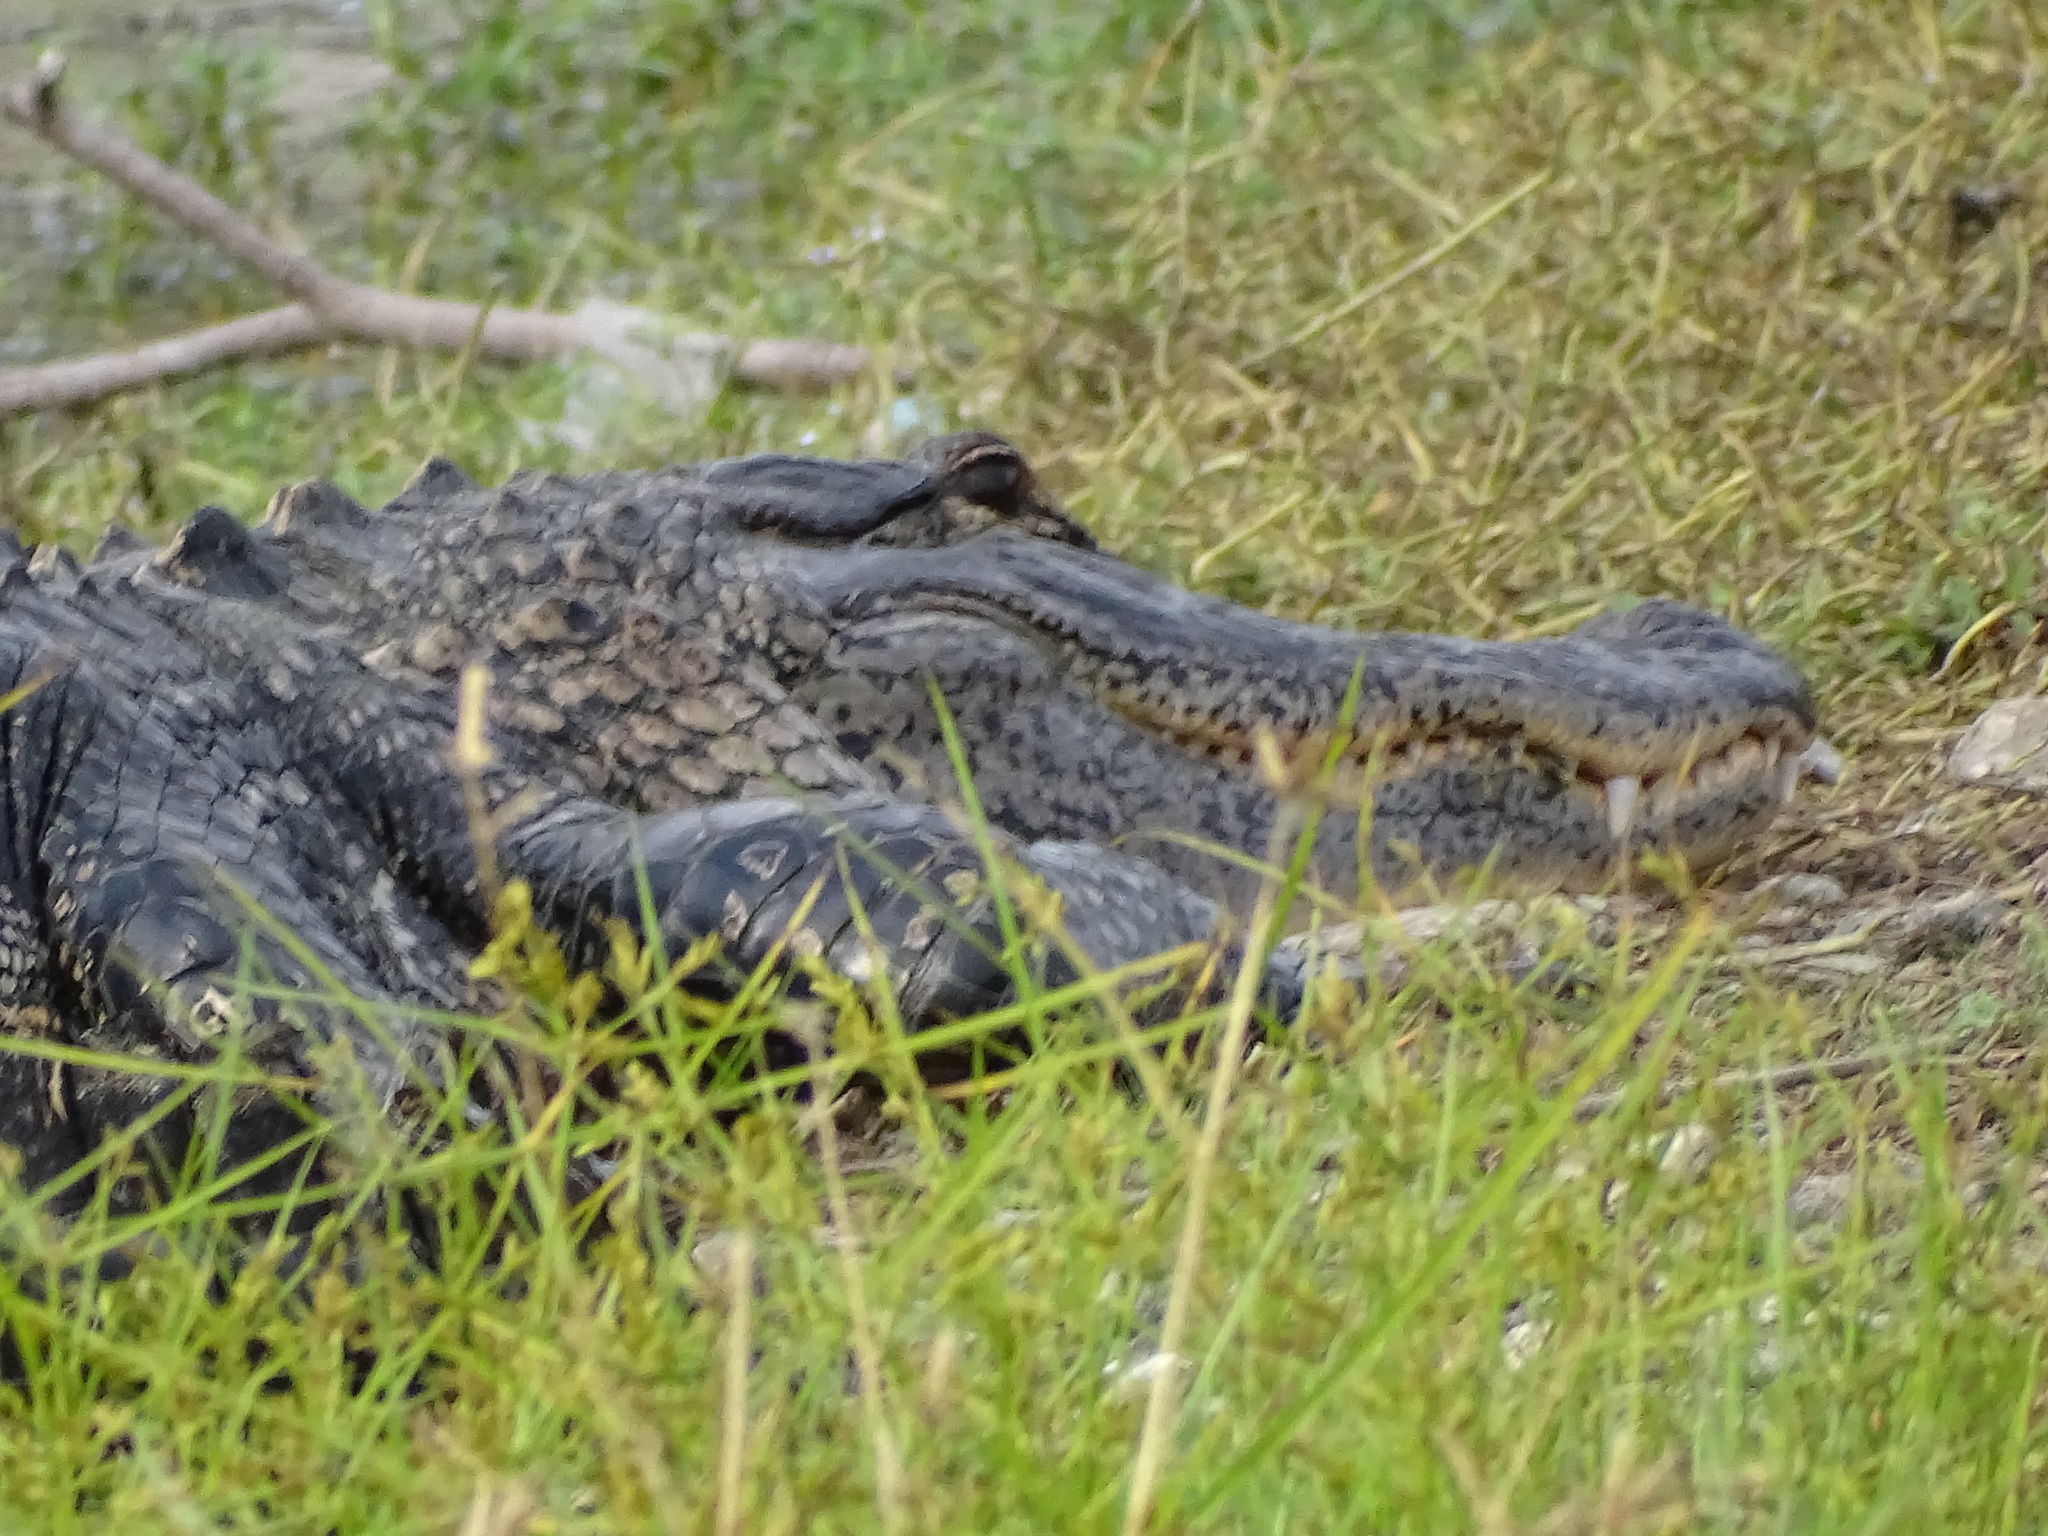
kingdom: Animalia
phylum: Chordata
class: Crocodylia
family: Alligatoridae
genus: Alligator
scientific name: Alligator mississippiensis
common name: American alligator
